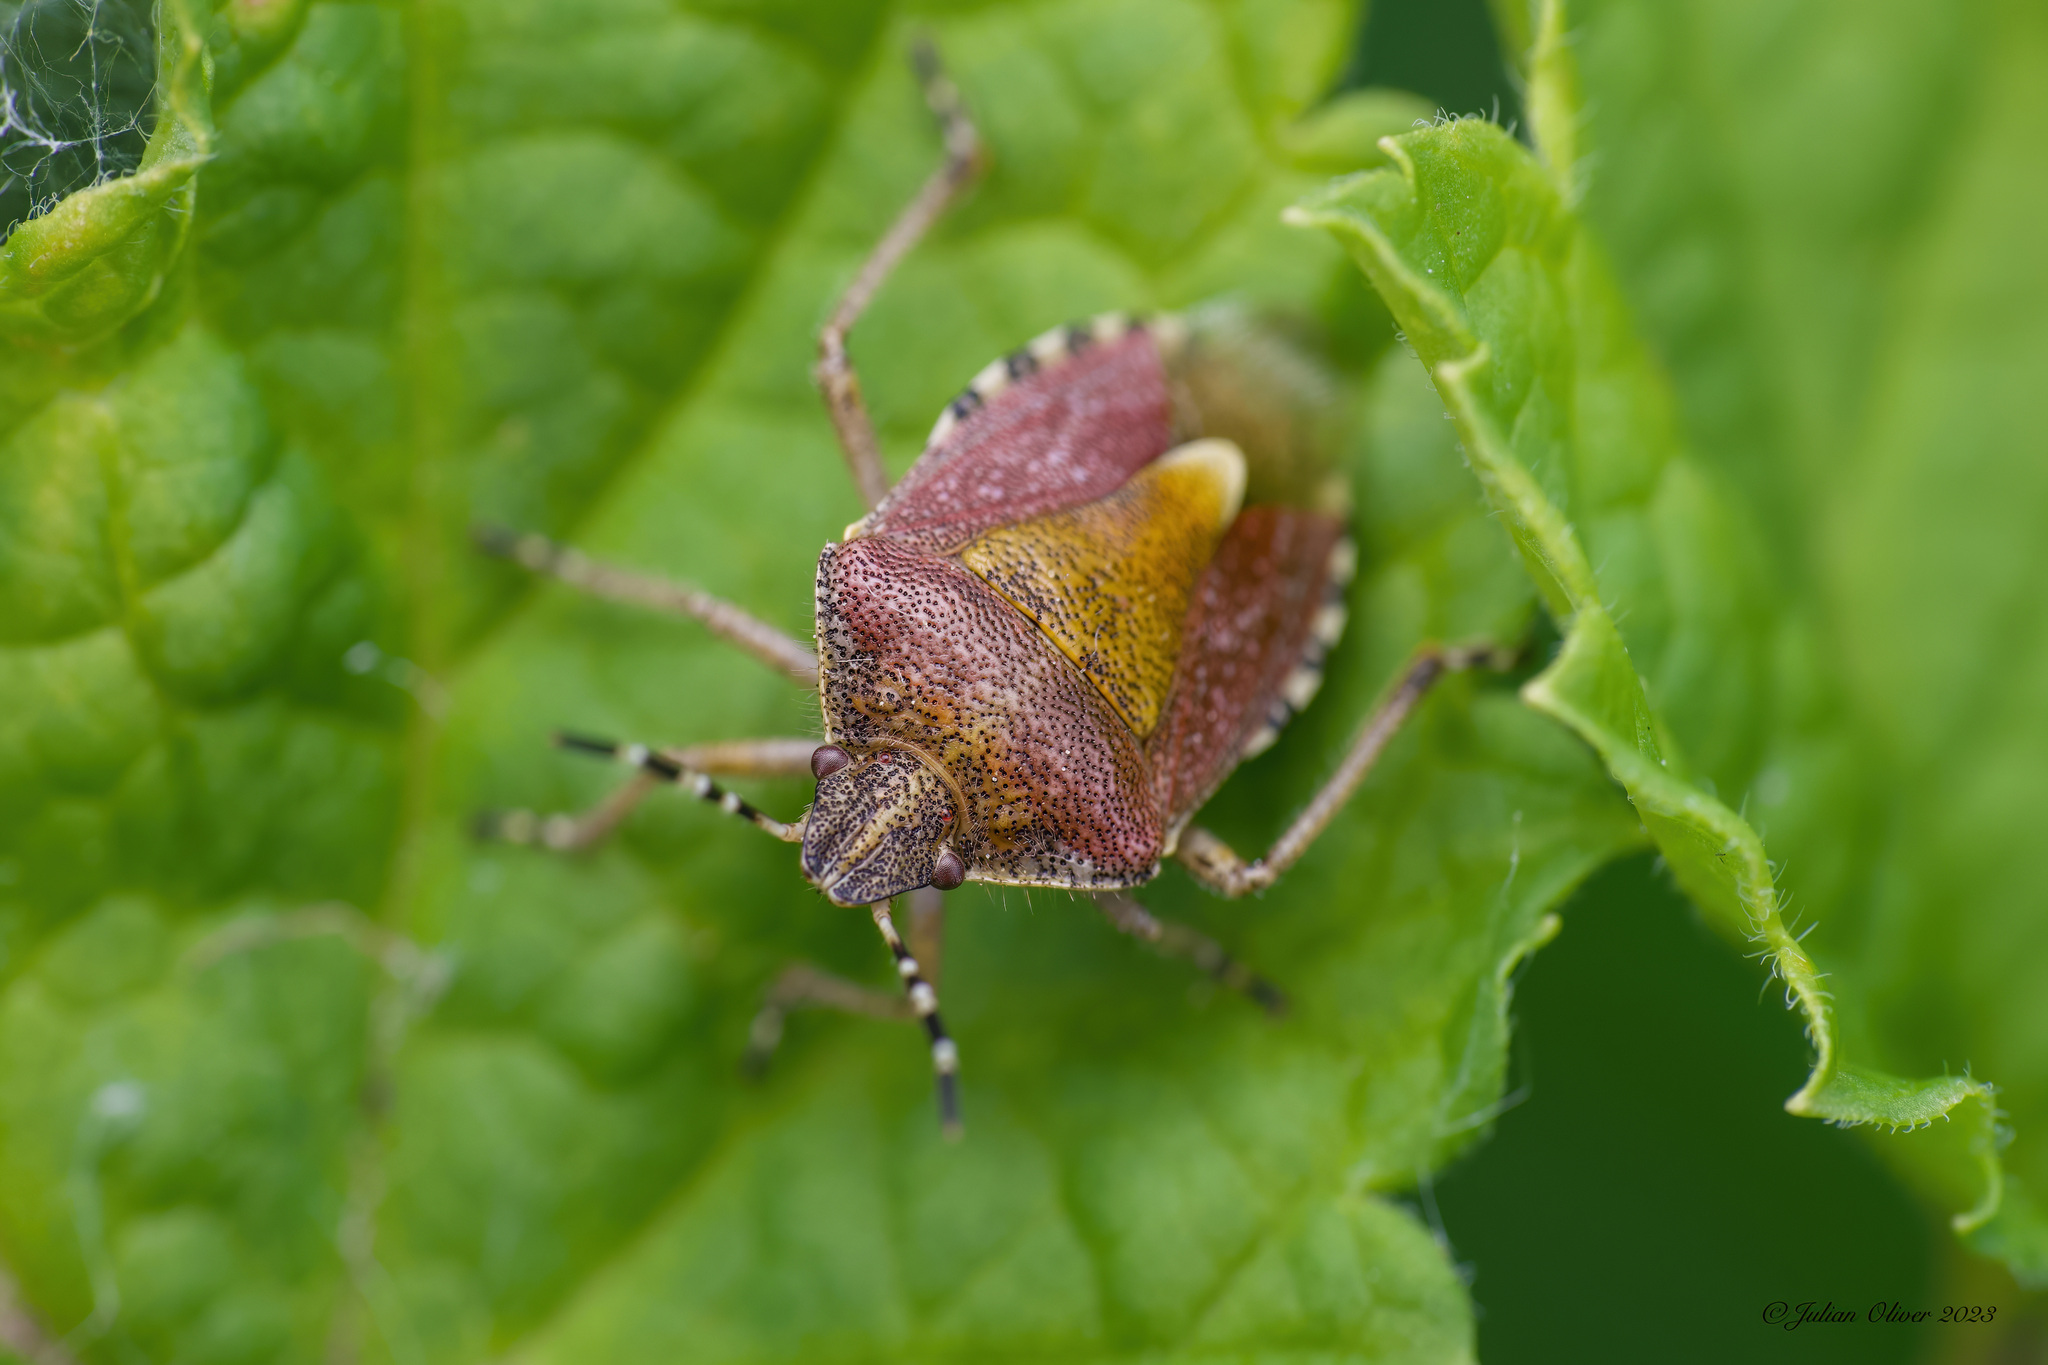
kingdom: Animalia
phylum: Arthropoda
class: Insecta
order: Hemiptera
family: Pentatomidae
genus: Dolycoris
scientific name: Dolycoris baccarum
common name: Sloe bug
